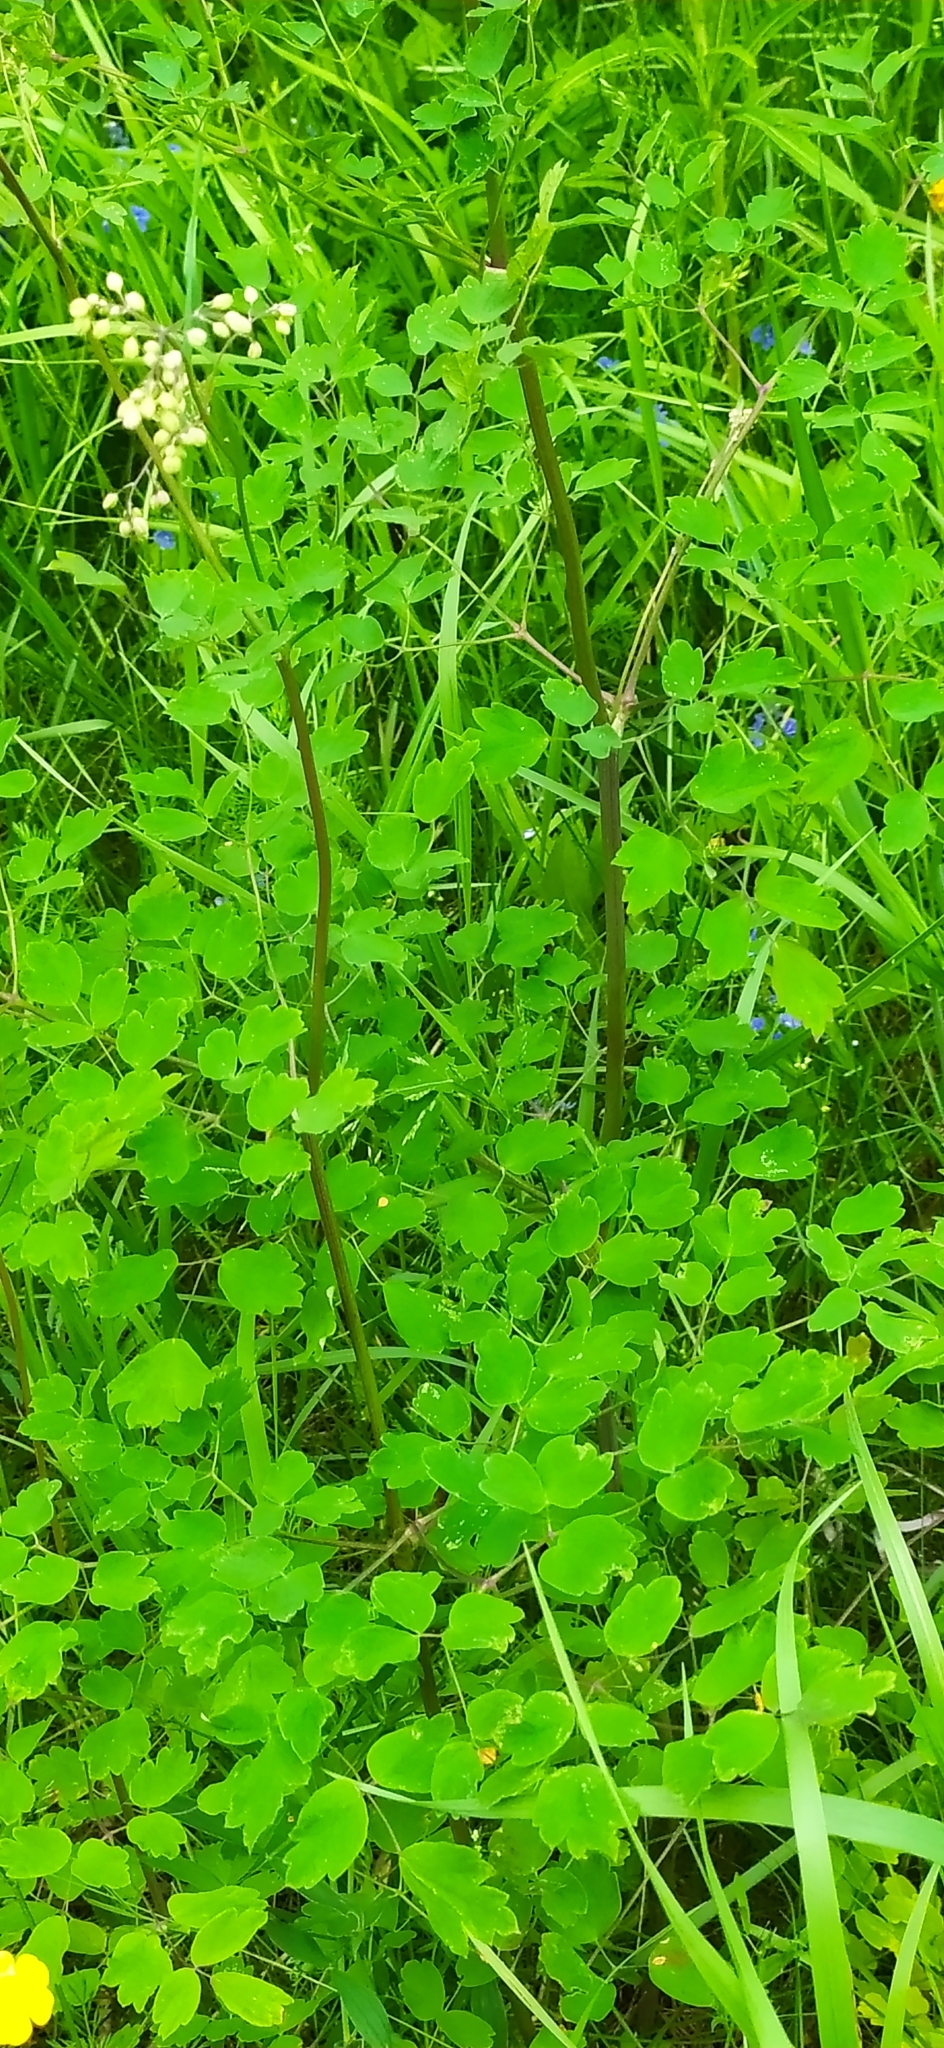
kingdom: Plantae
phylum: Tracheophyta
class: Magnoliopsida
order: Ranunculales
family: Ranunculaceae
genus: Thalictrum
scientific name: Thalictrum minus
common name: Lesser meadow-rue
